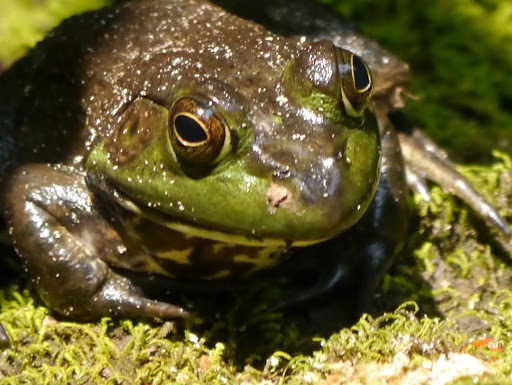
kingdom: Animalia
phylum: Chordata
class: Amphibia
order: Anura
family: Ranidae
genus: Lithobates
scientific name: Lithobates catesbeianus
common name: American bullfrog
